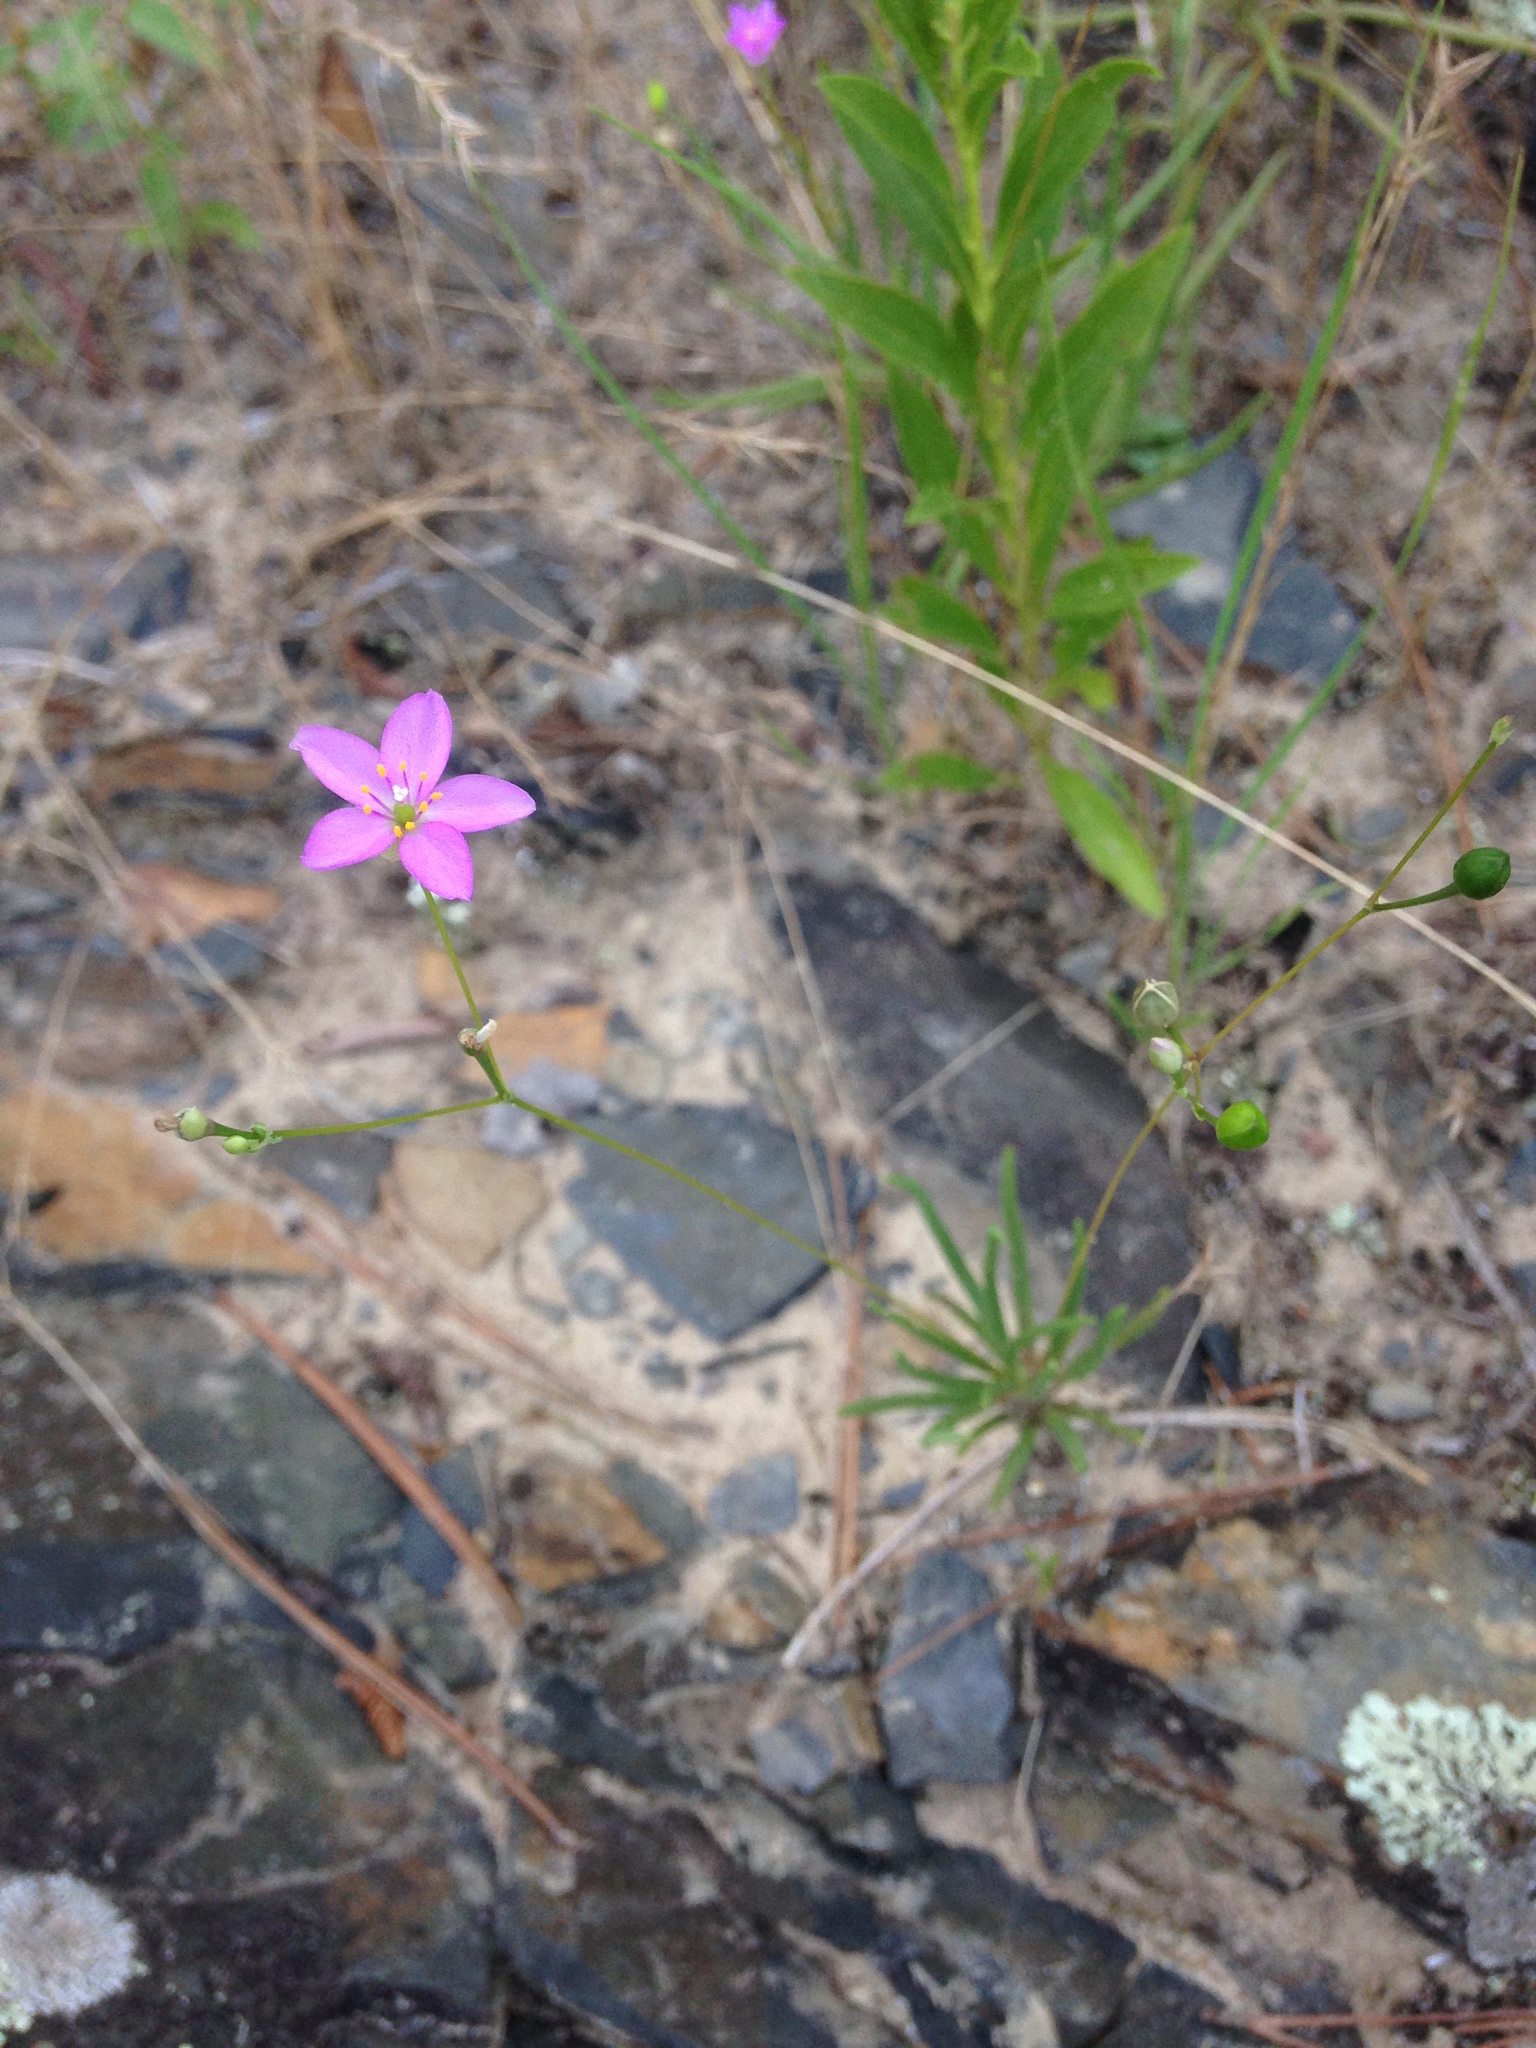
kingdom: Plantae
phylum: Tracheophyta
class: Magnoliopsida
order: Caryophyllales
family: Montiaceae
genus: Phemeranthus
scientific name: Phemeranthus parviflorus
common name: Sunbright
